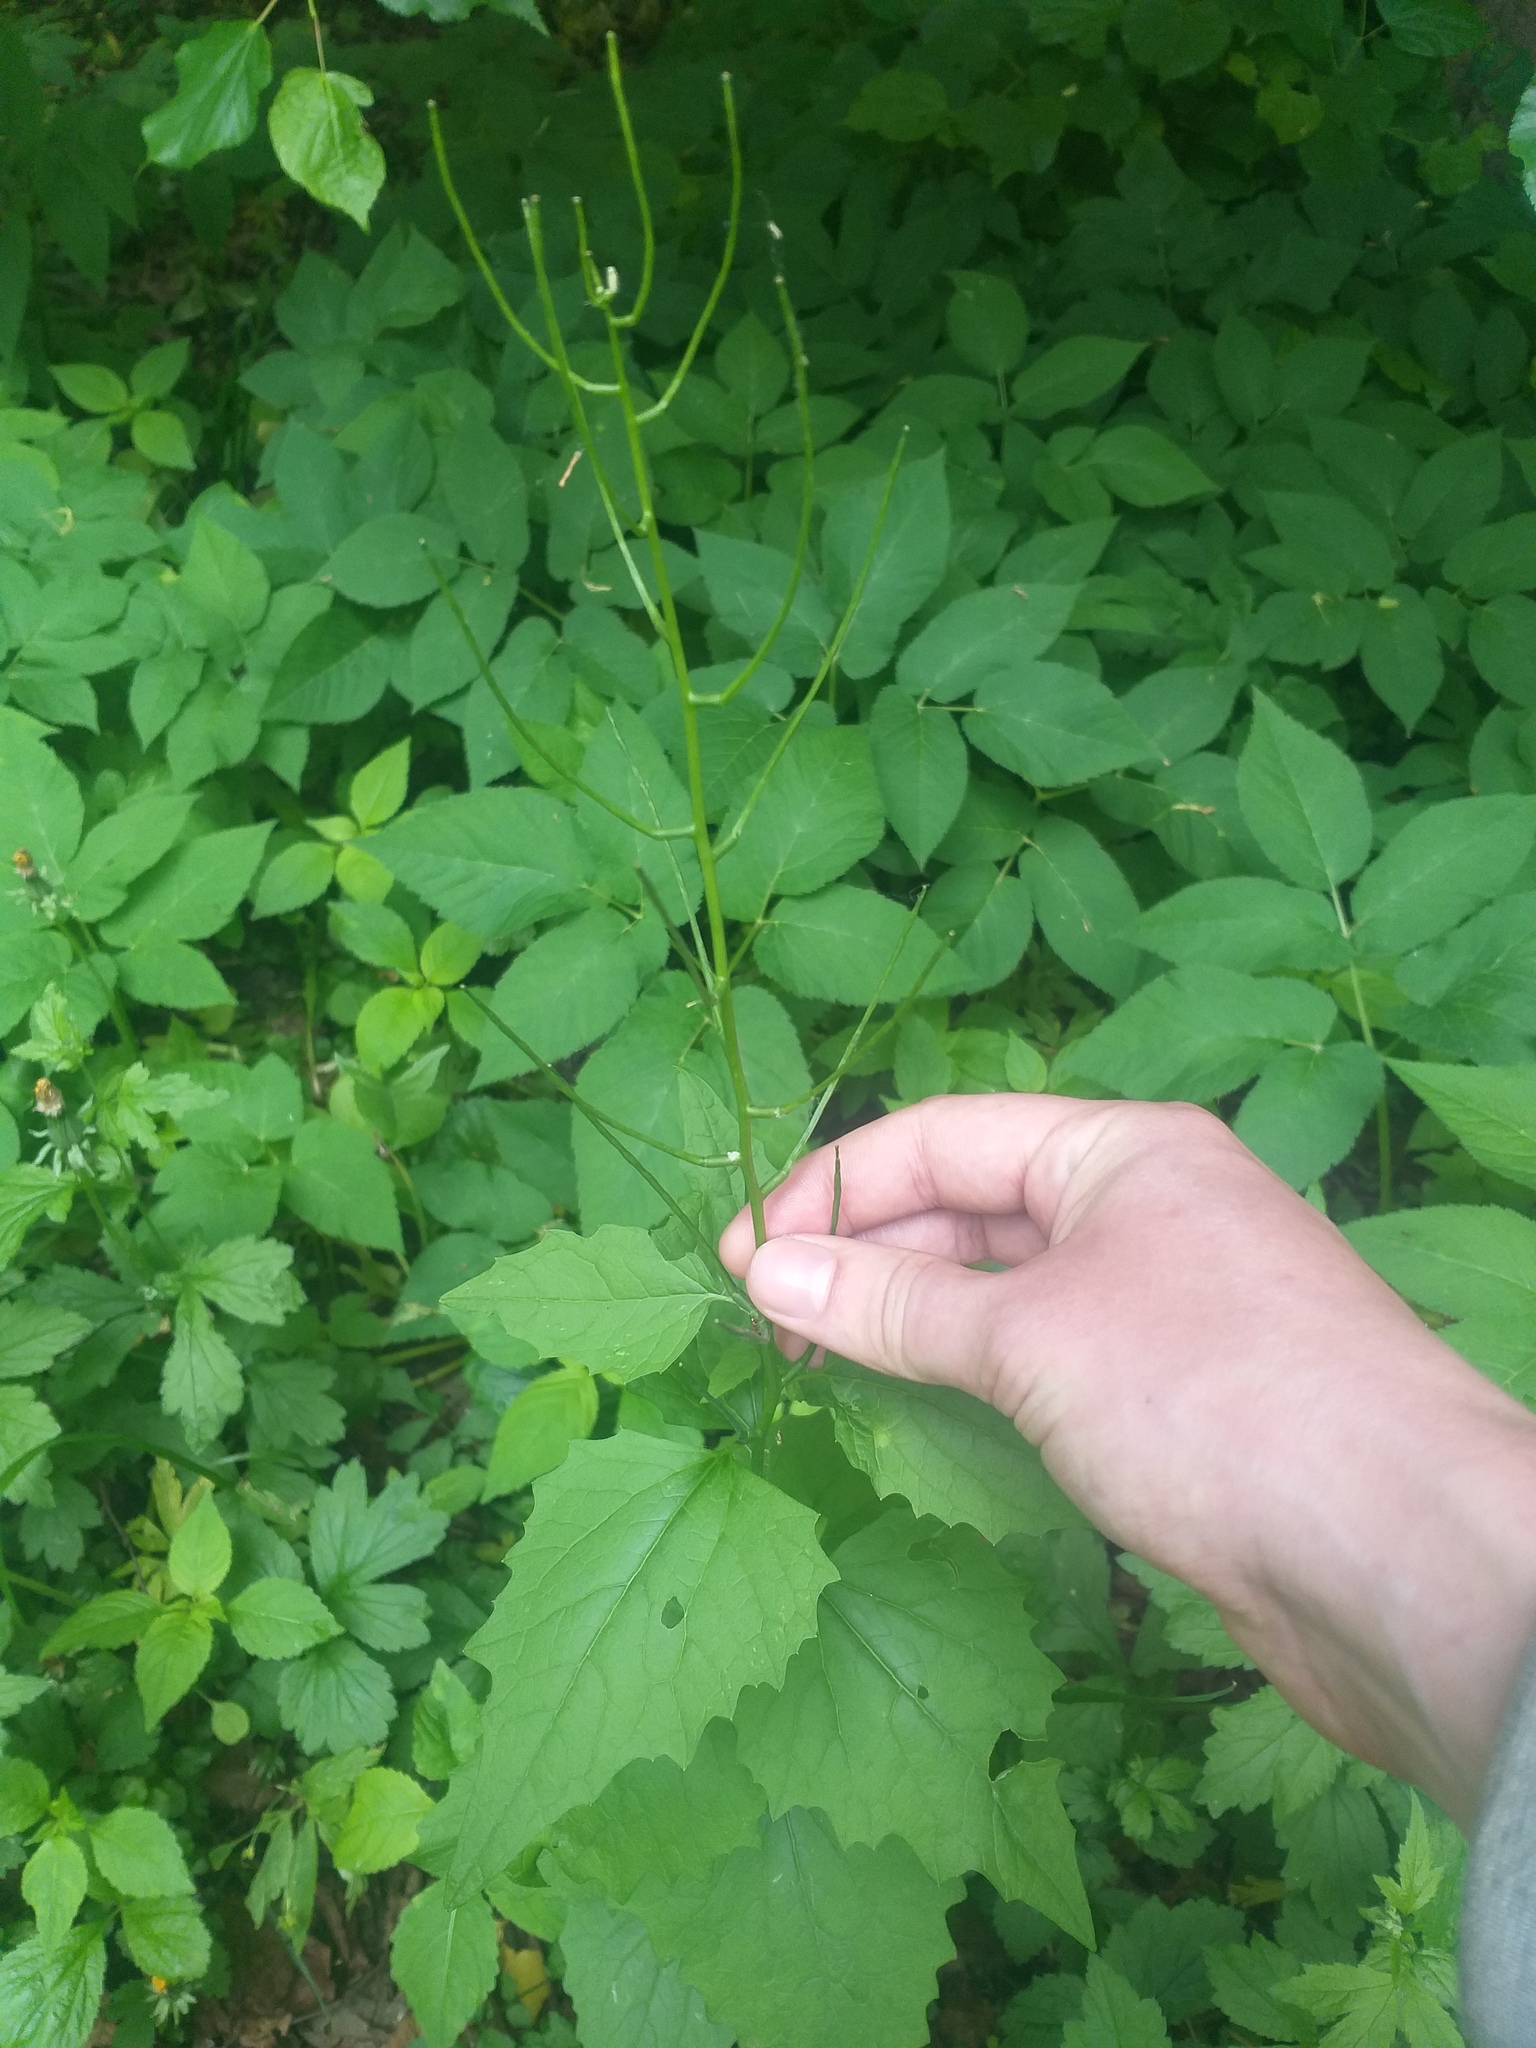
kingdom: Plantae
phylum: Tracheophyta
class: Magnoliopsida
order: Brassicales
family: Brassicaceae
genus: Alliaria
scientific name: Alliaria petiolata
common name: Garlic mustard
